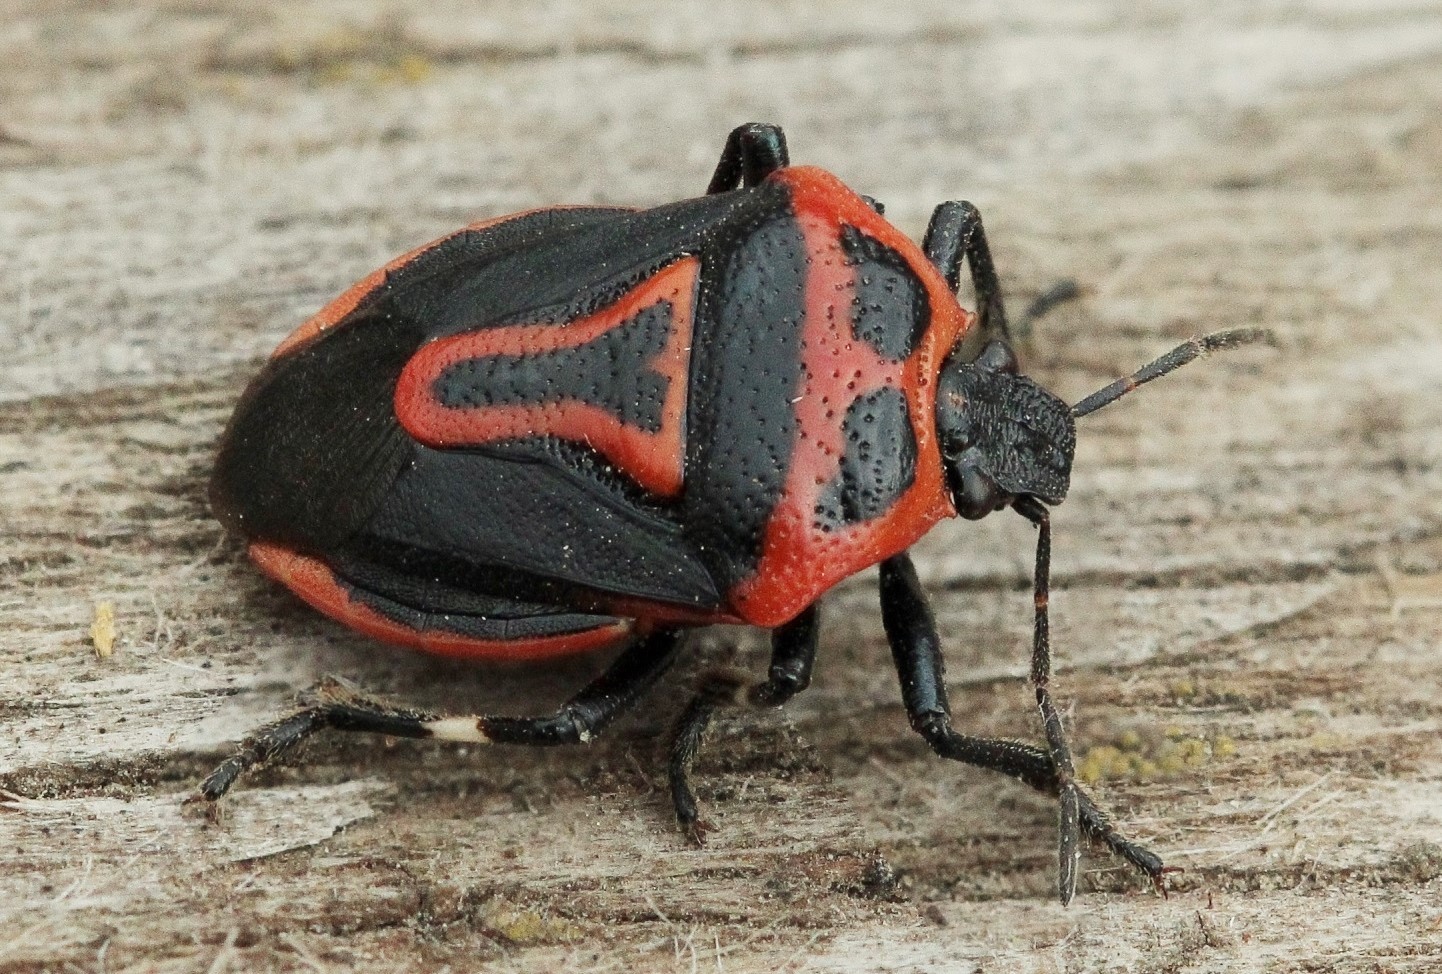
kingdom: Animalia
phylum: Arthropoda
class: Insecta
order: Hemiptera
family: Pentatomidae
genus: Perillus
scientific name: Perillus bioculatus
